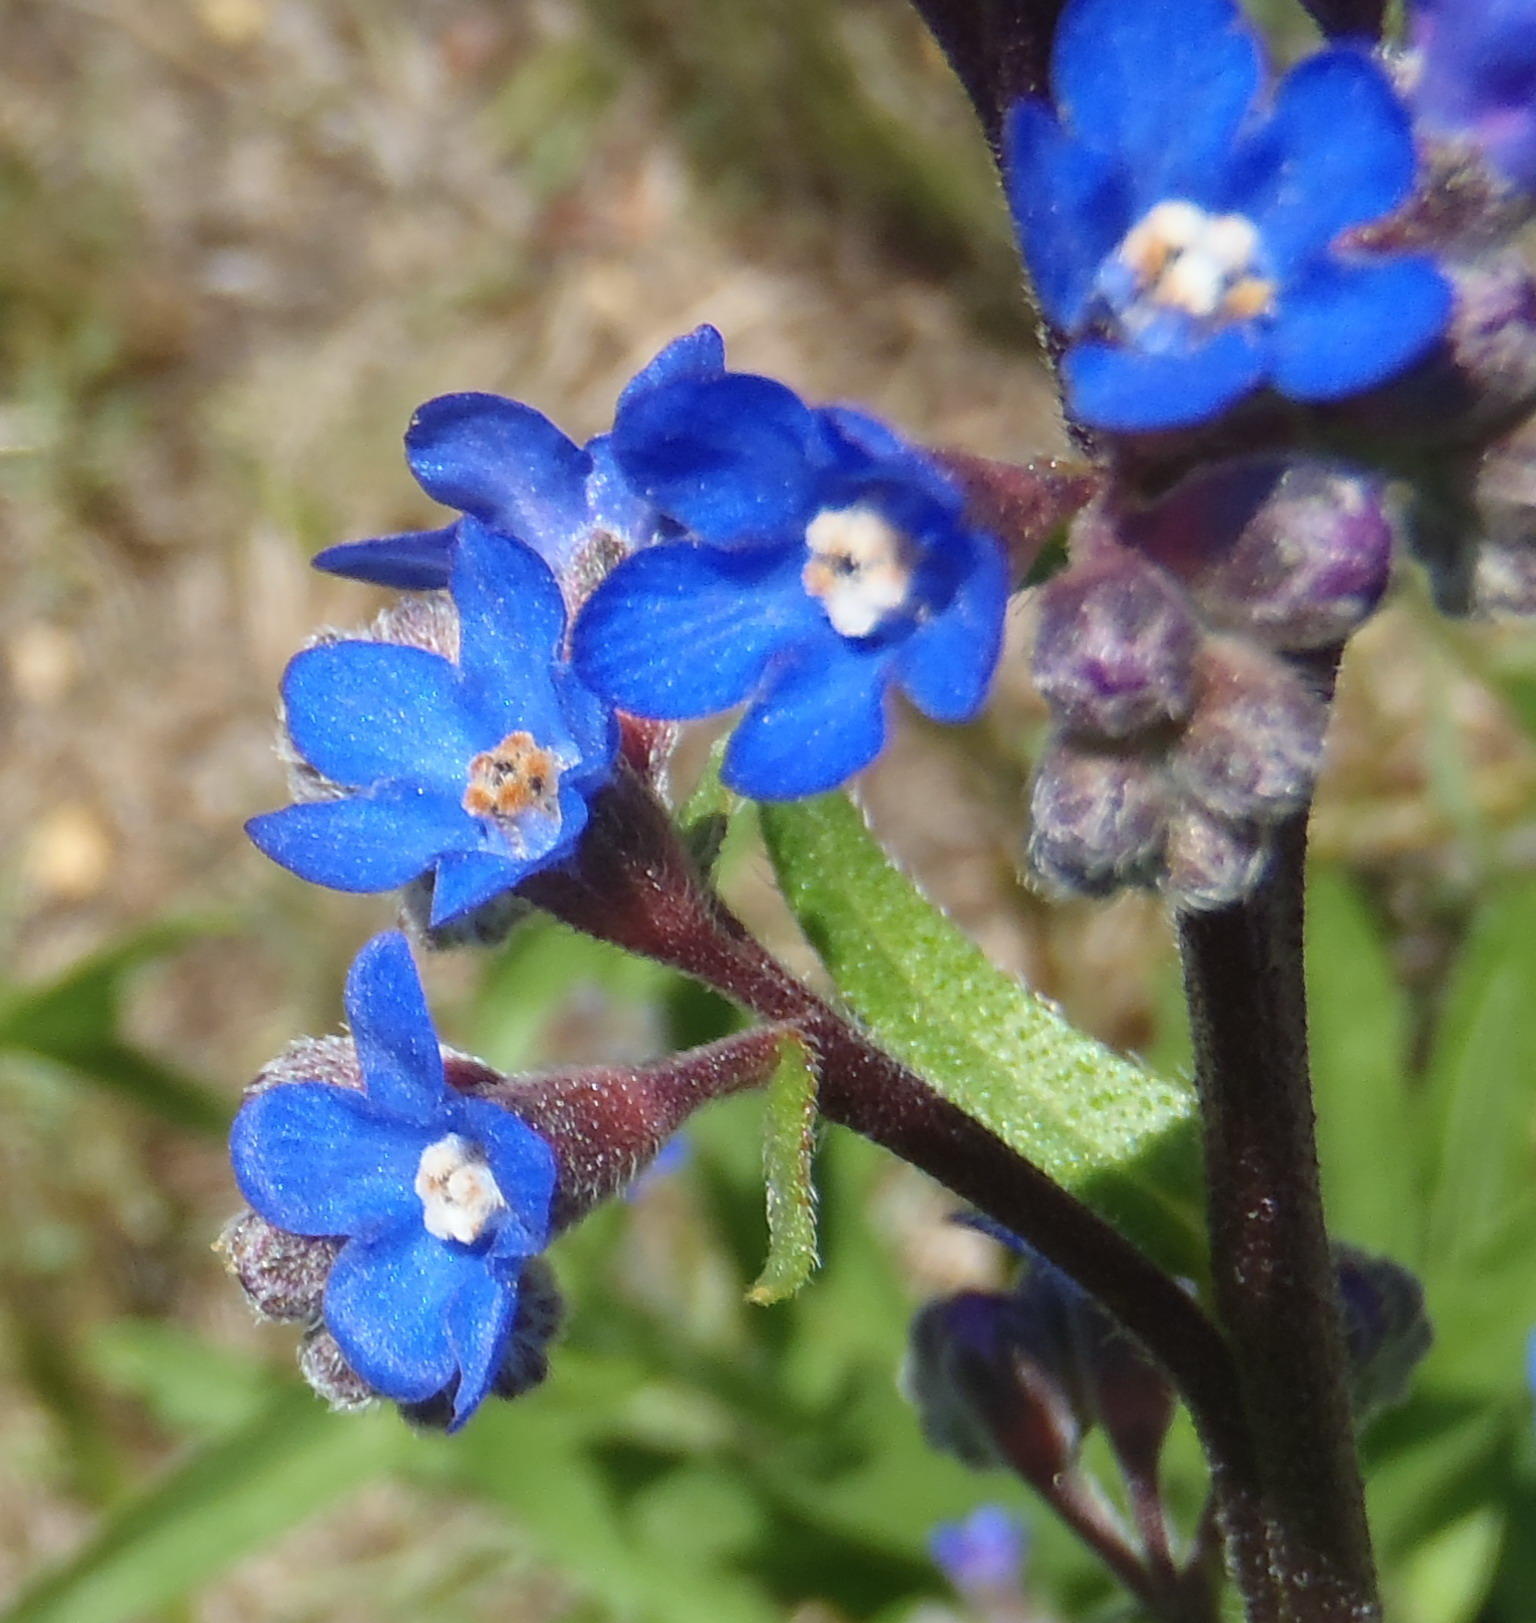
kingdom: Plantae
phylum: Tracheophyta
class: Magnoliopsida
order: Boraginales
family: Boraginaceae
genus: Anchusa
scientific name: Anchusa capensis
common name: Cape bugloss
